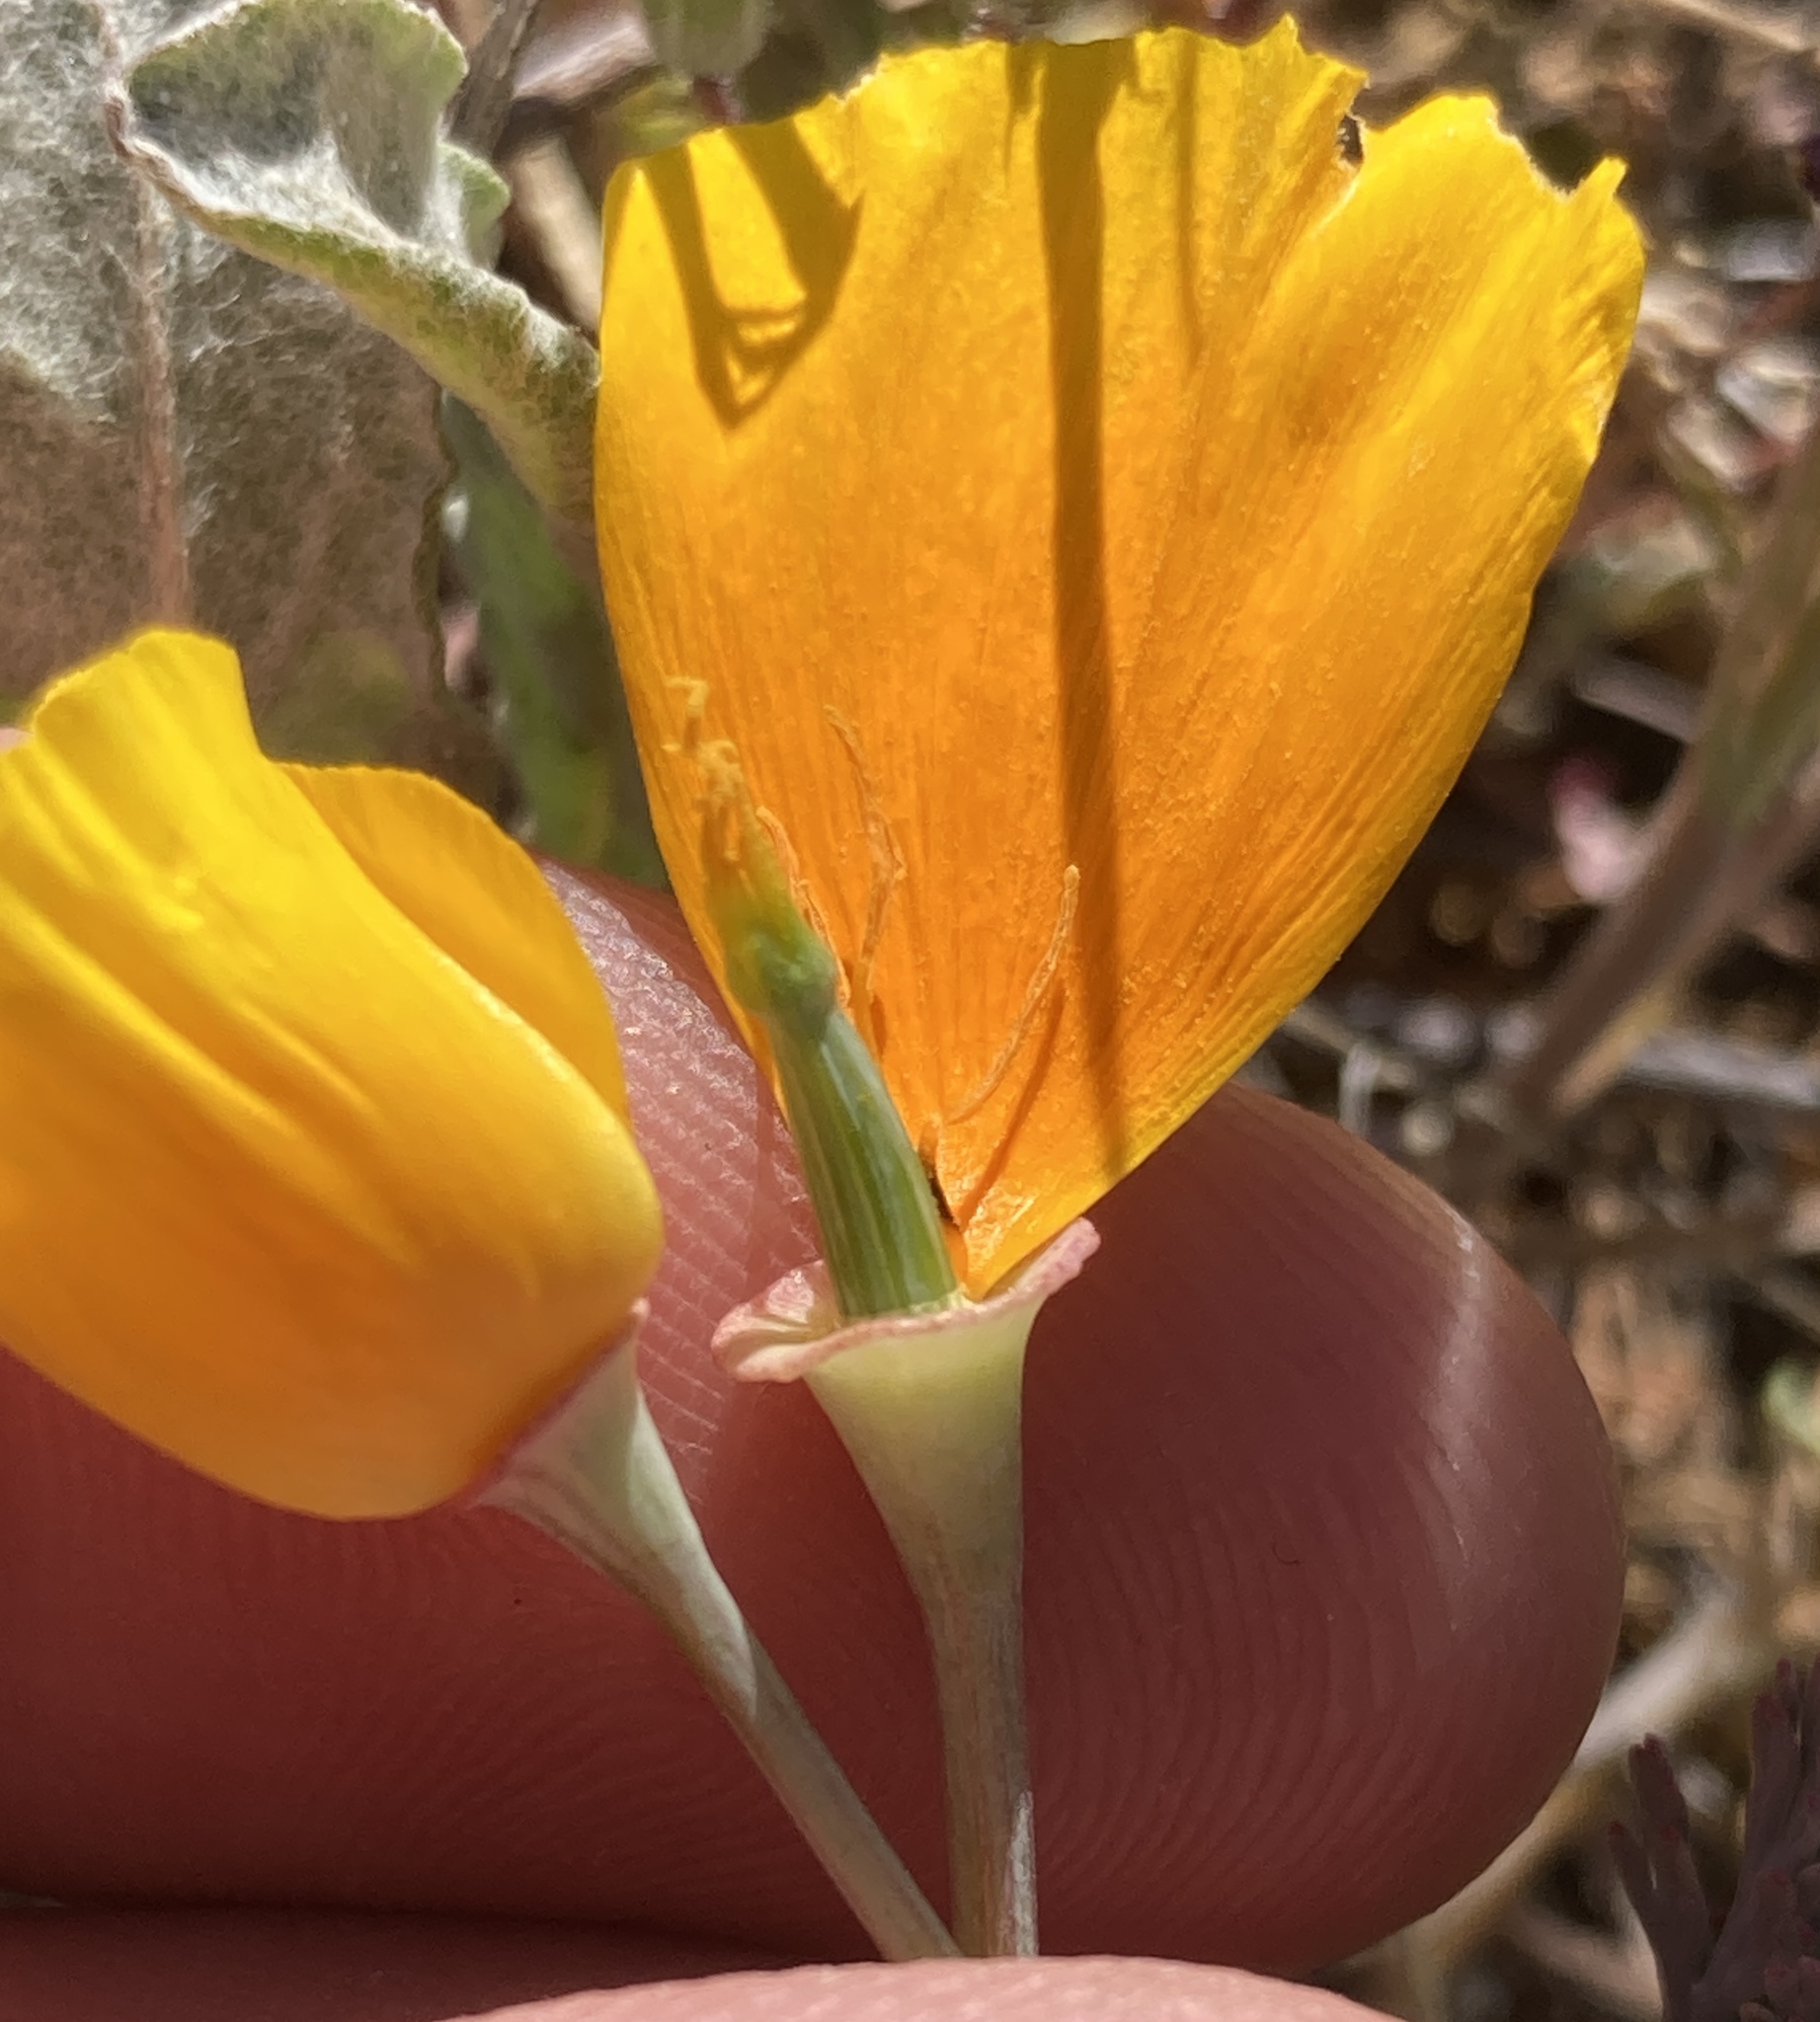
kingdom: Plantae
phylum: Tracheophyta
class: Magnoliopsida
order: Ranunculales
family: Papaveraceae
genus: Eschscholzia
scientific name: Eschscholzia californica
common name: California poppy
